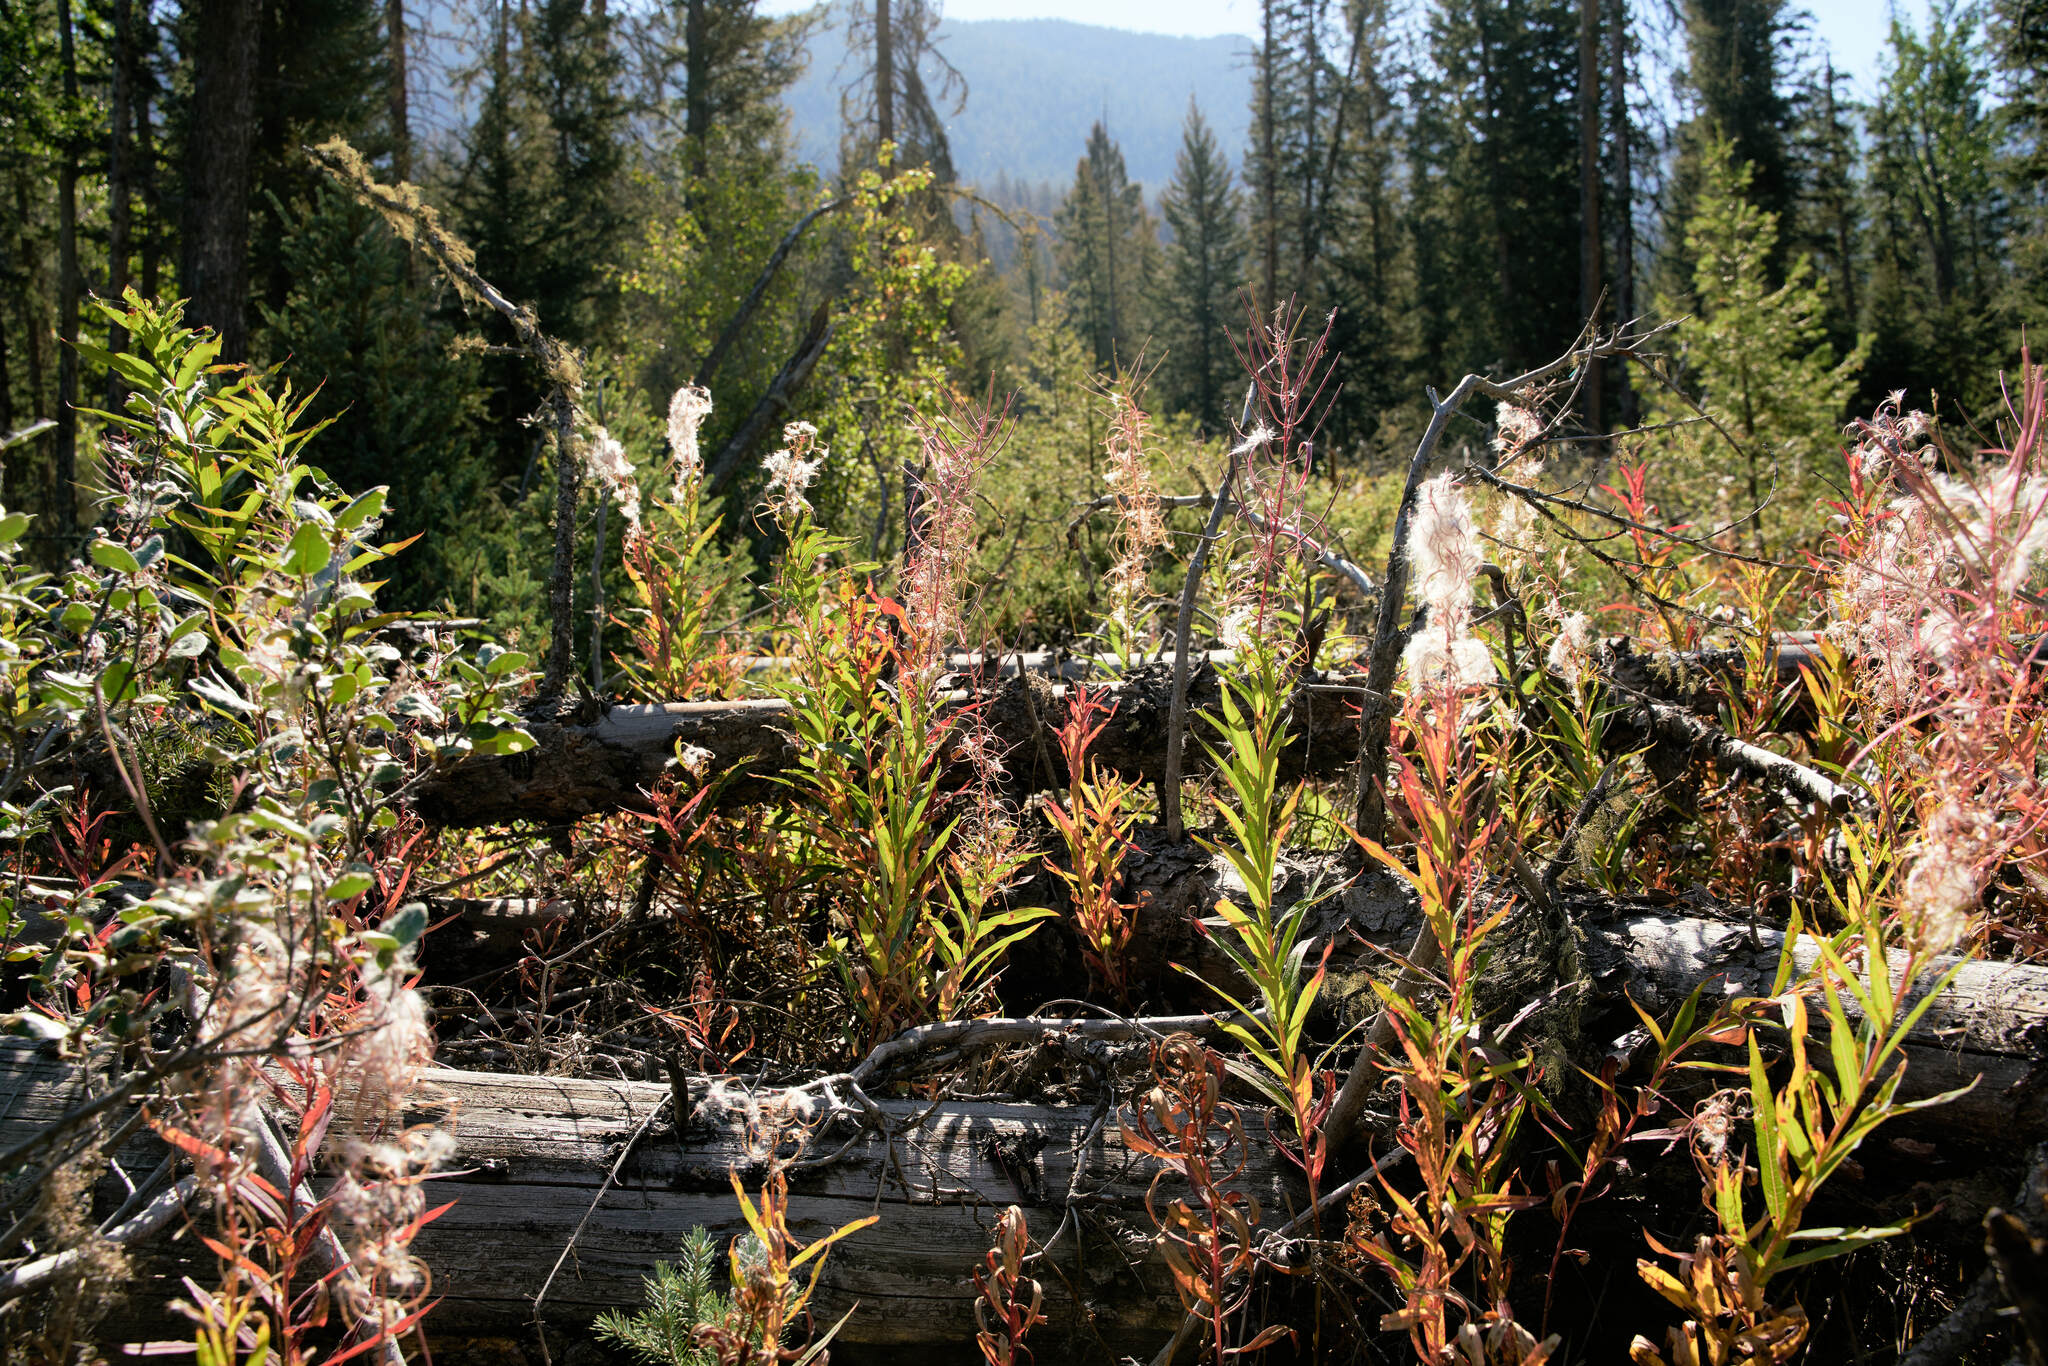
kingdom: Plantae
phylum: Tracheophyta
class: Magnoliopsida
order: Myrtales
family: Onagraceae
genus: Chamaenerion
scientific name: Chamaenerion angustifolium
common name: Fireweed
